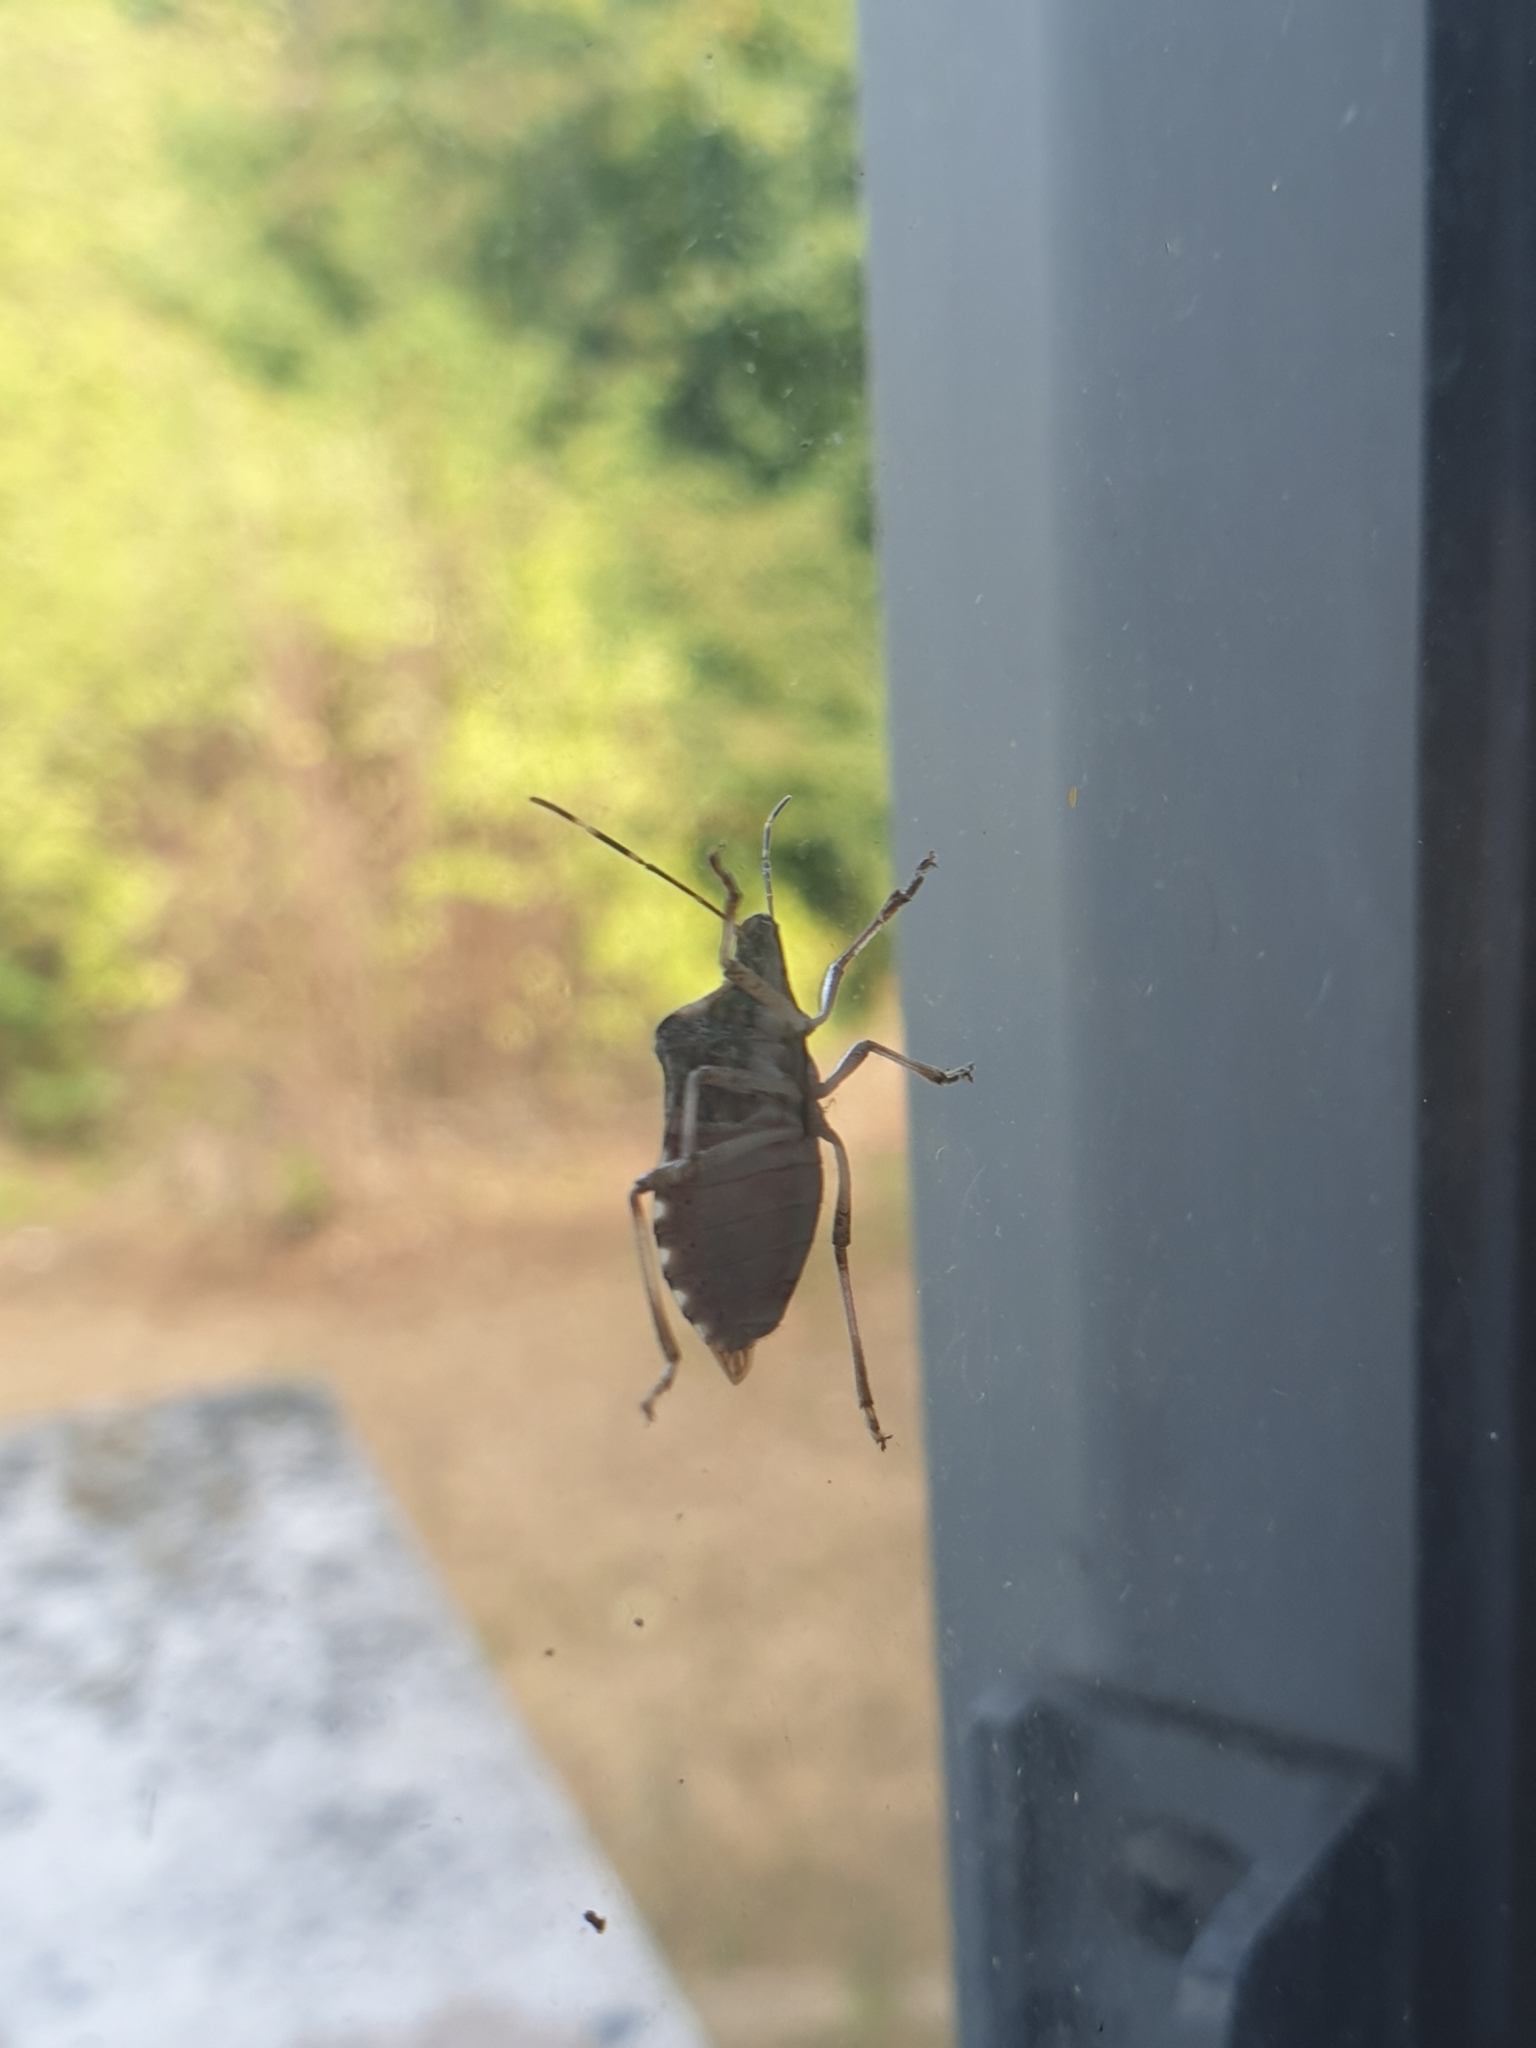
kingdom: Animalia
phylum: Arthropoda
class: Insecta
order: Hemiptera
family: Pentatomidae
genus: Halyomorpha
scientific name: Halyomorpha halys
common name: Brown marmorated stink bug
